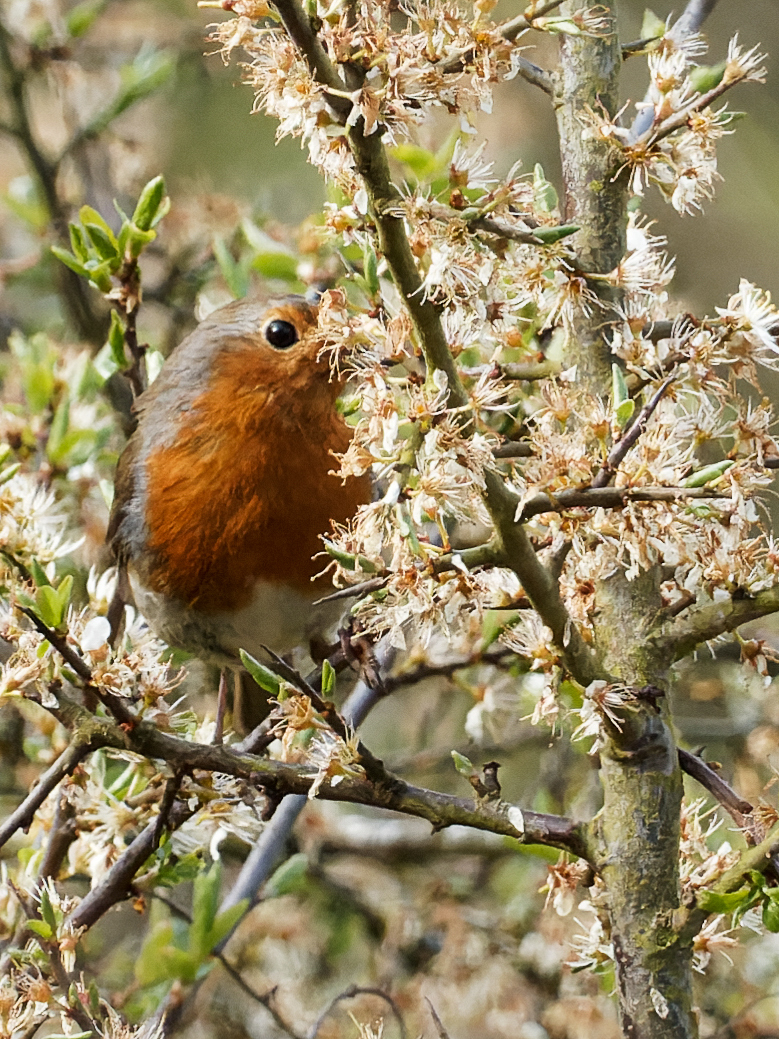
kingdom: Animalia
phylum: Chordata
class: Aves
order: Passeriformes
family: Muscicapidae
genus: Erithacus
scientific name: Erithacus rubecula
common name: European robin
